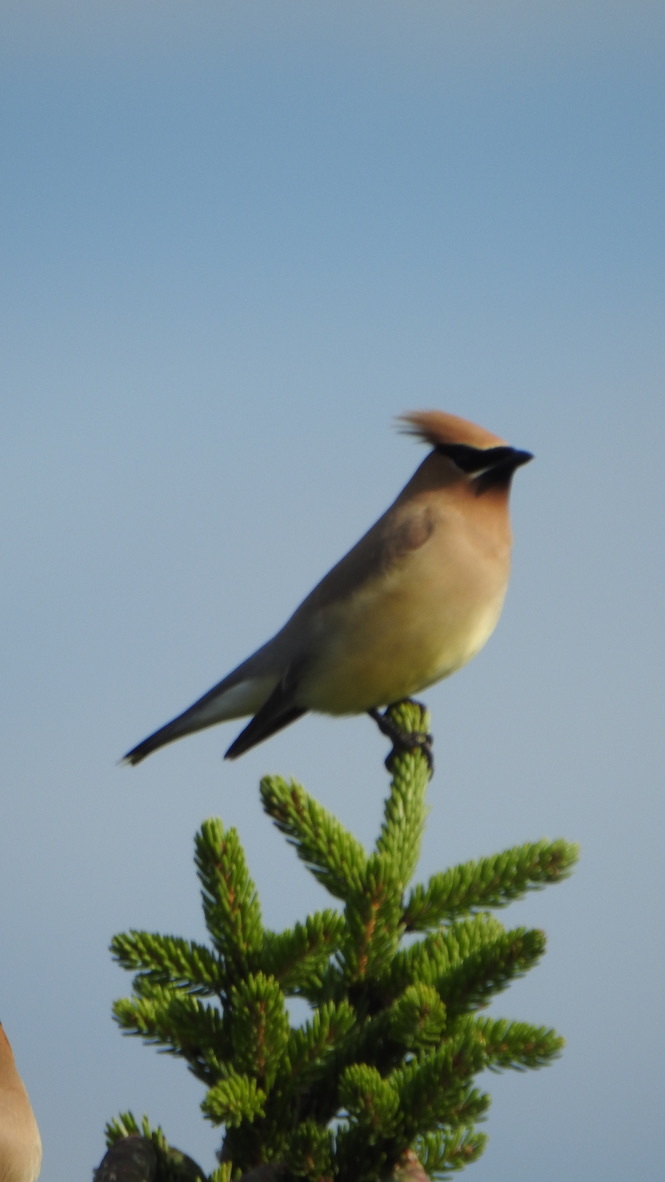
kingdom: Animalia
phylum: Chordata
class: Aves
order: Passeriformes
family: Bombycillidae
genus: Bombycilla
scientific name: Bombycilla cedrorum
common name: Cedar waxwing
